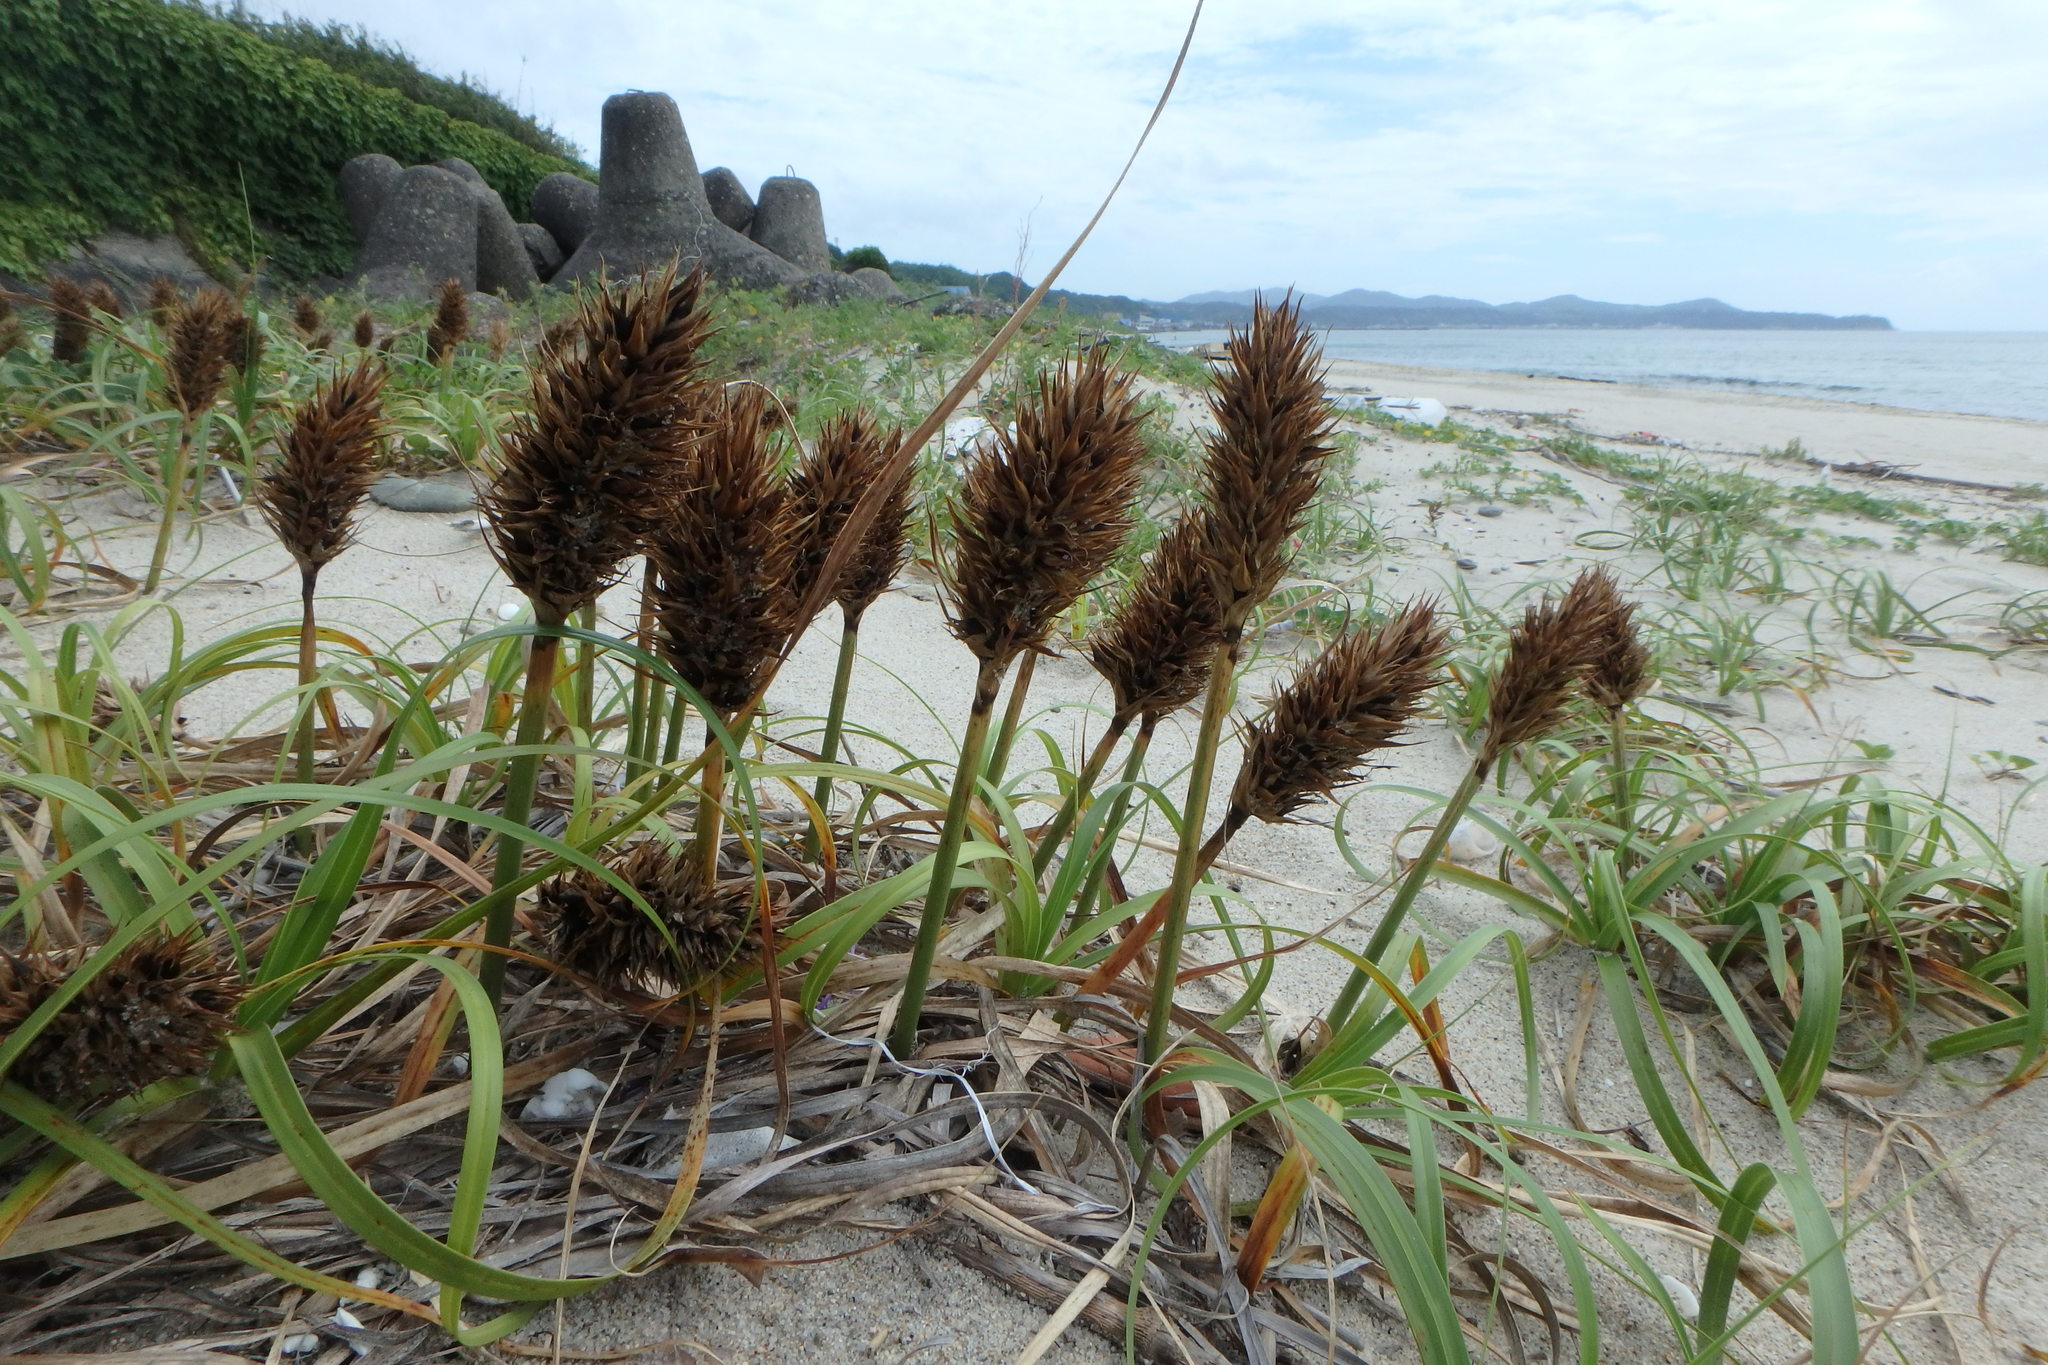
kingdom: Plantae
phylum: Tracheophyta
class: Liliopsida
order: Poales
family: Cyperaceae
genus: Carex
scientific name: Carex kobomugi
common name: Japanese sedge
